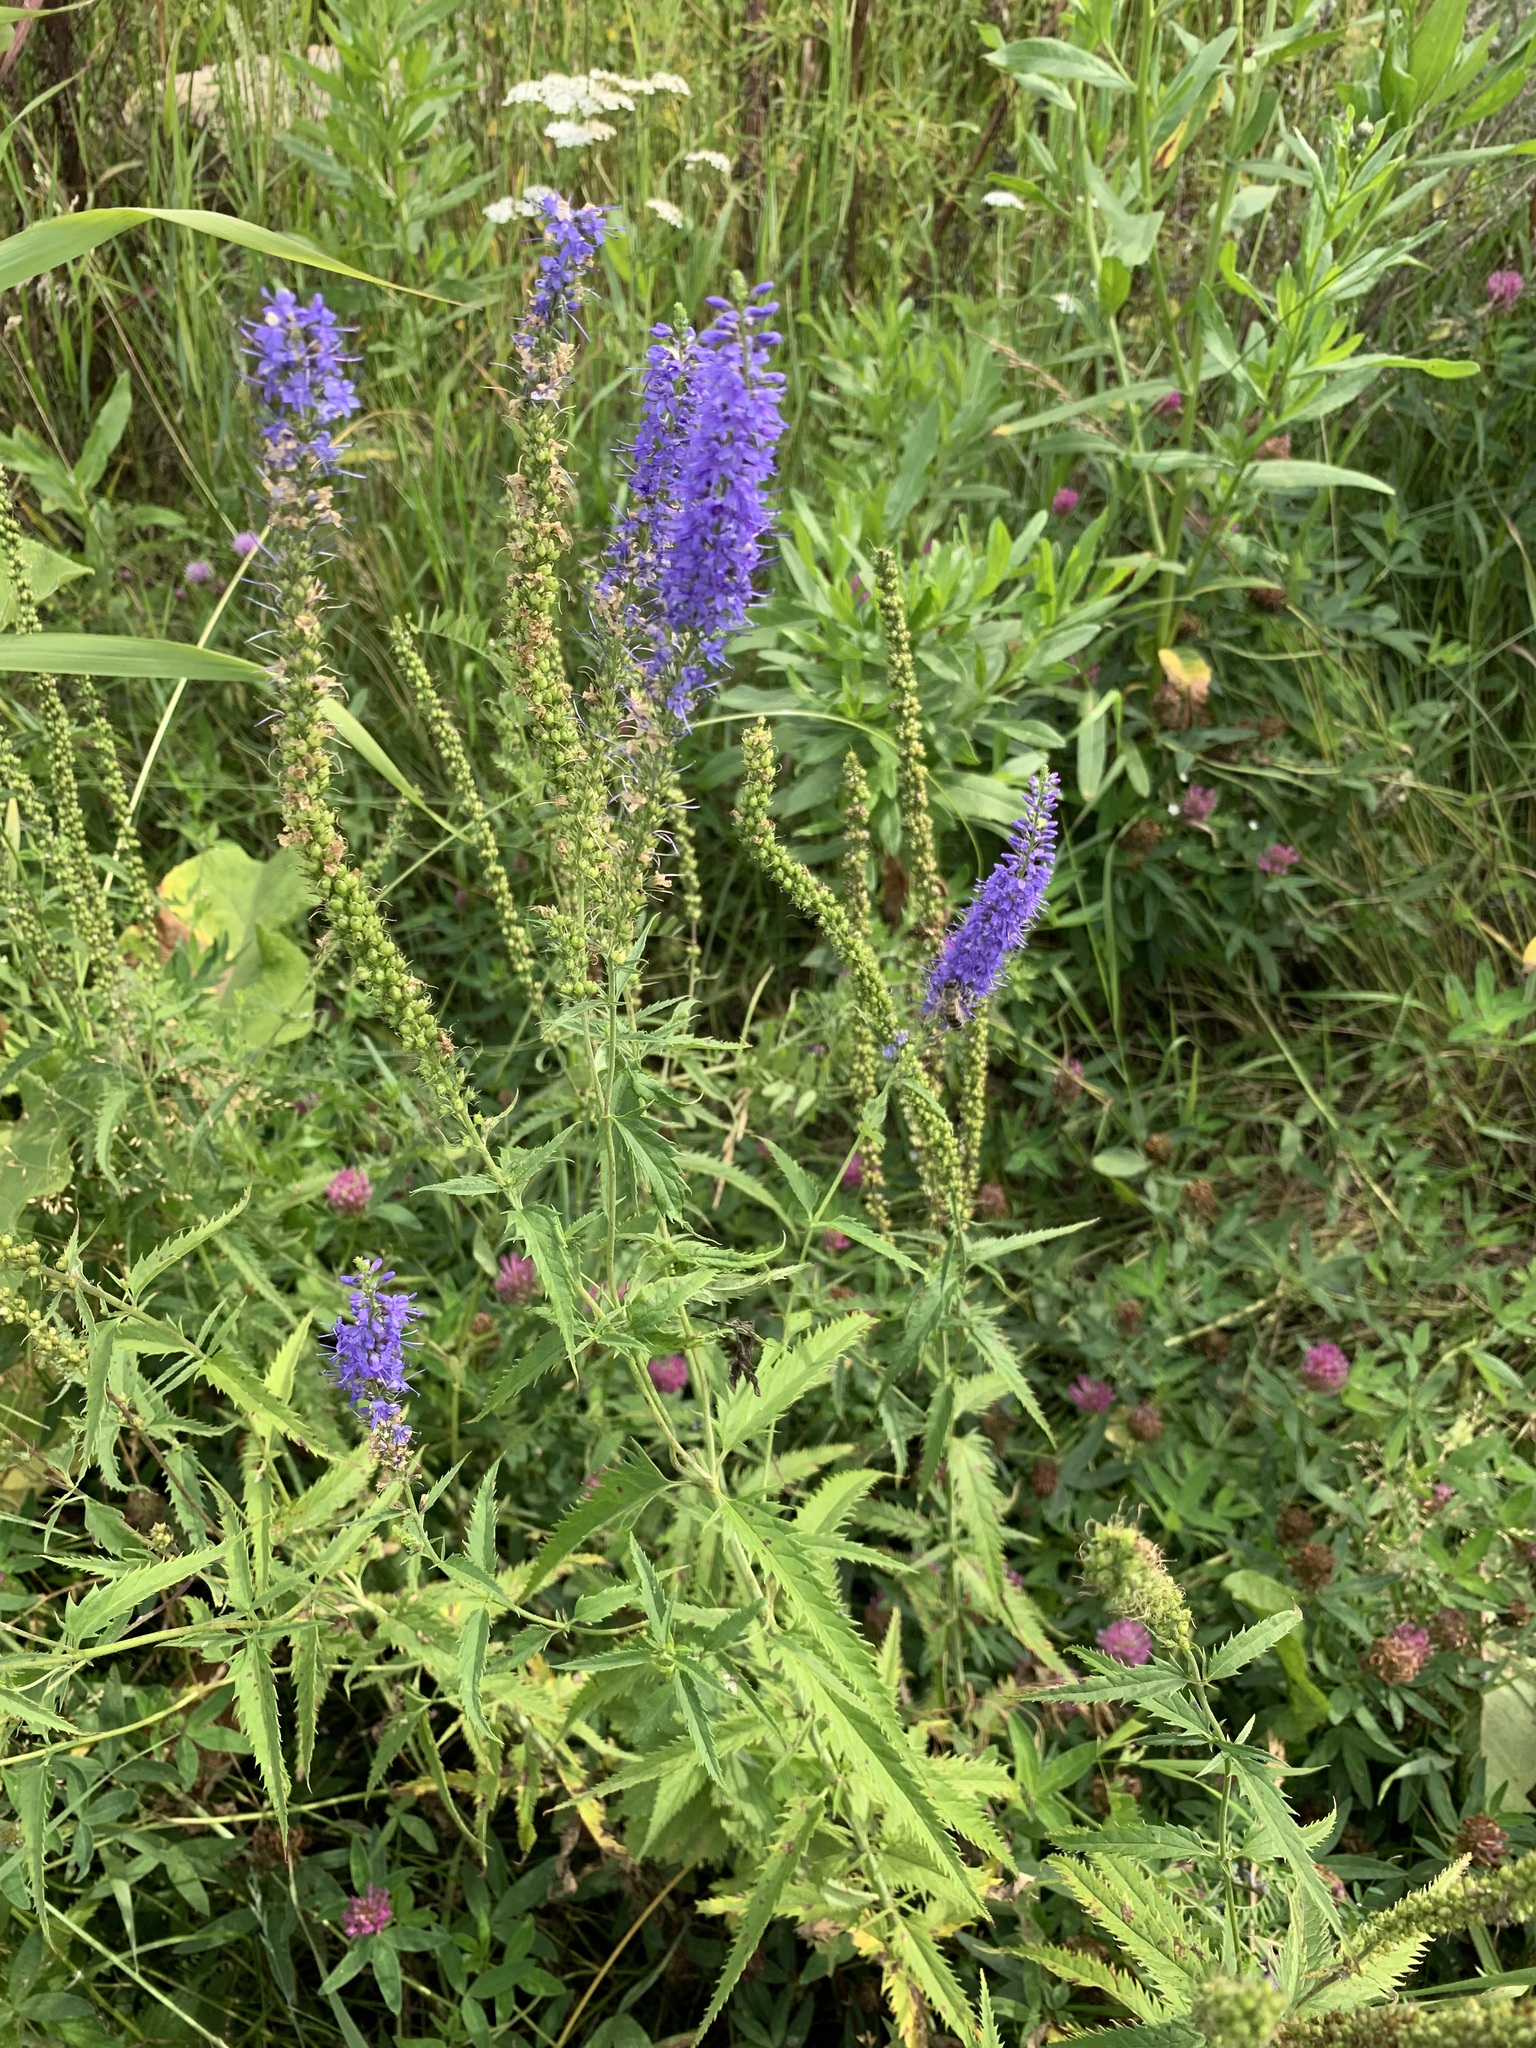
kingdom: Plantae
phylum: Tracheophyta
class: Magnoliopsida
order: Lamiales
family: Plantaginaceae
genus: Veronica
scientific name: Veronica longifolia
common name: Garden speedwell
